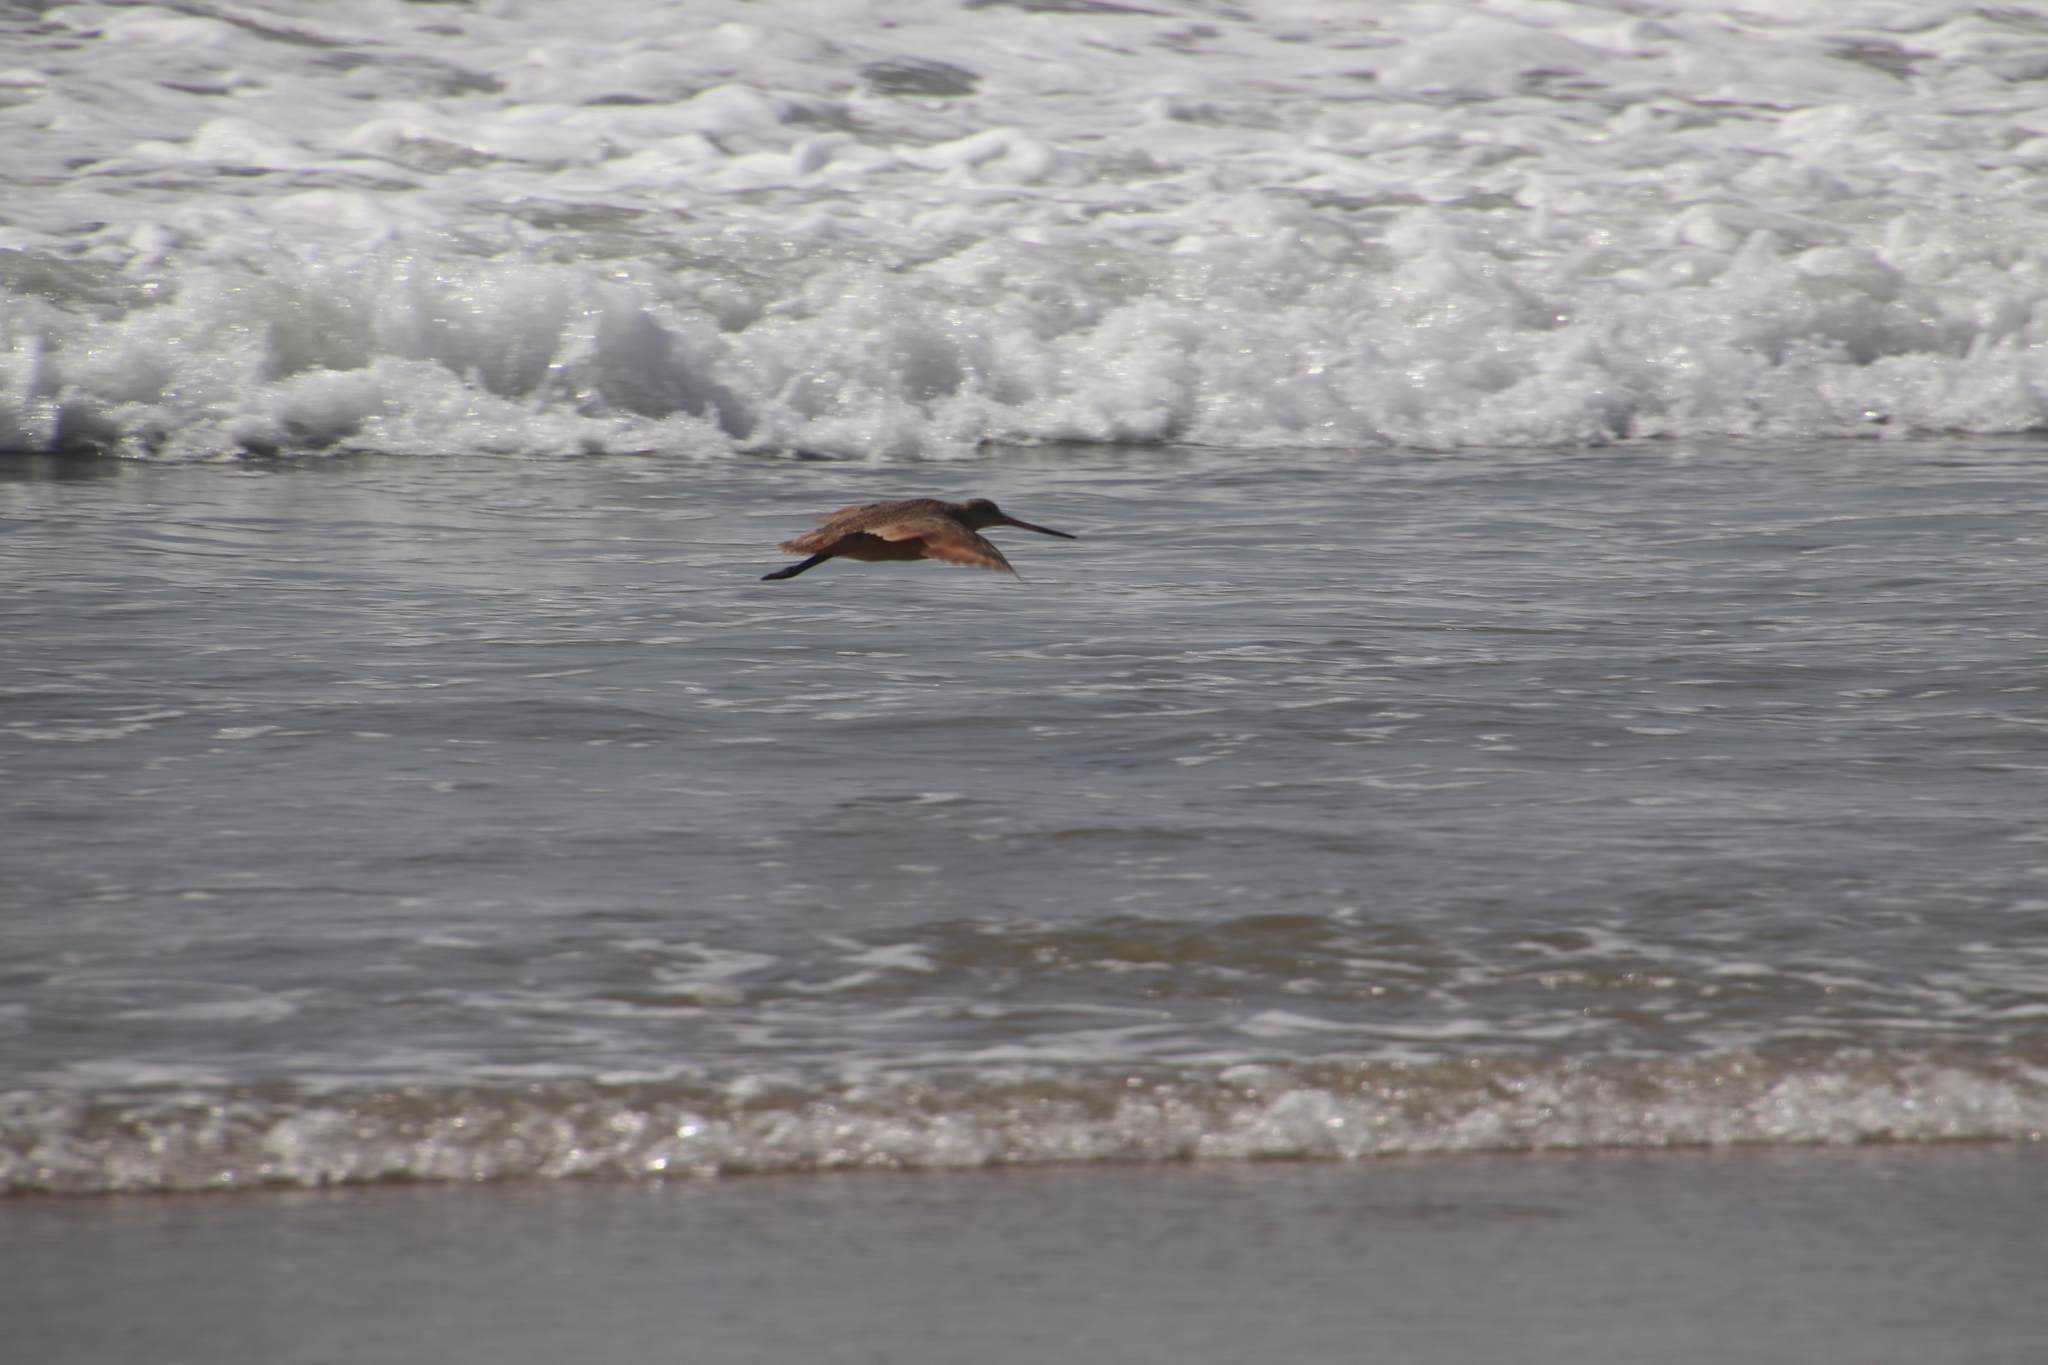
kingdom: Animalia
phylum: Chordata
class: Aves
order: Charadriiformes
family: Scolopacidae
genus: Limosa
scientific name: Limosa fedoa
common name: Marbled godwit
